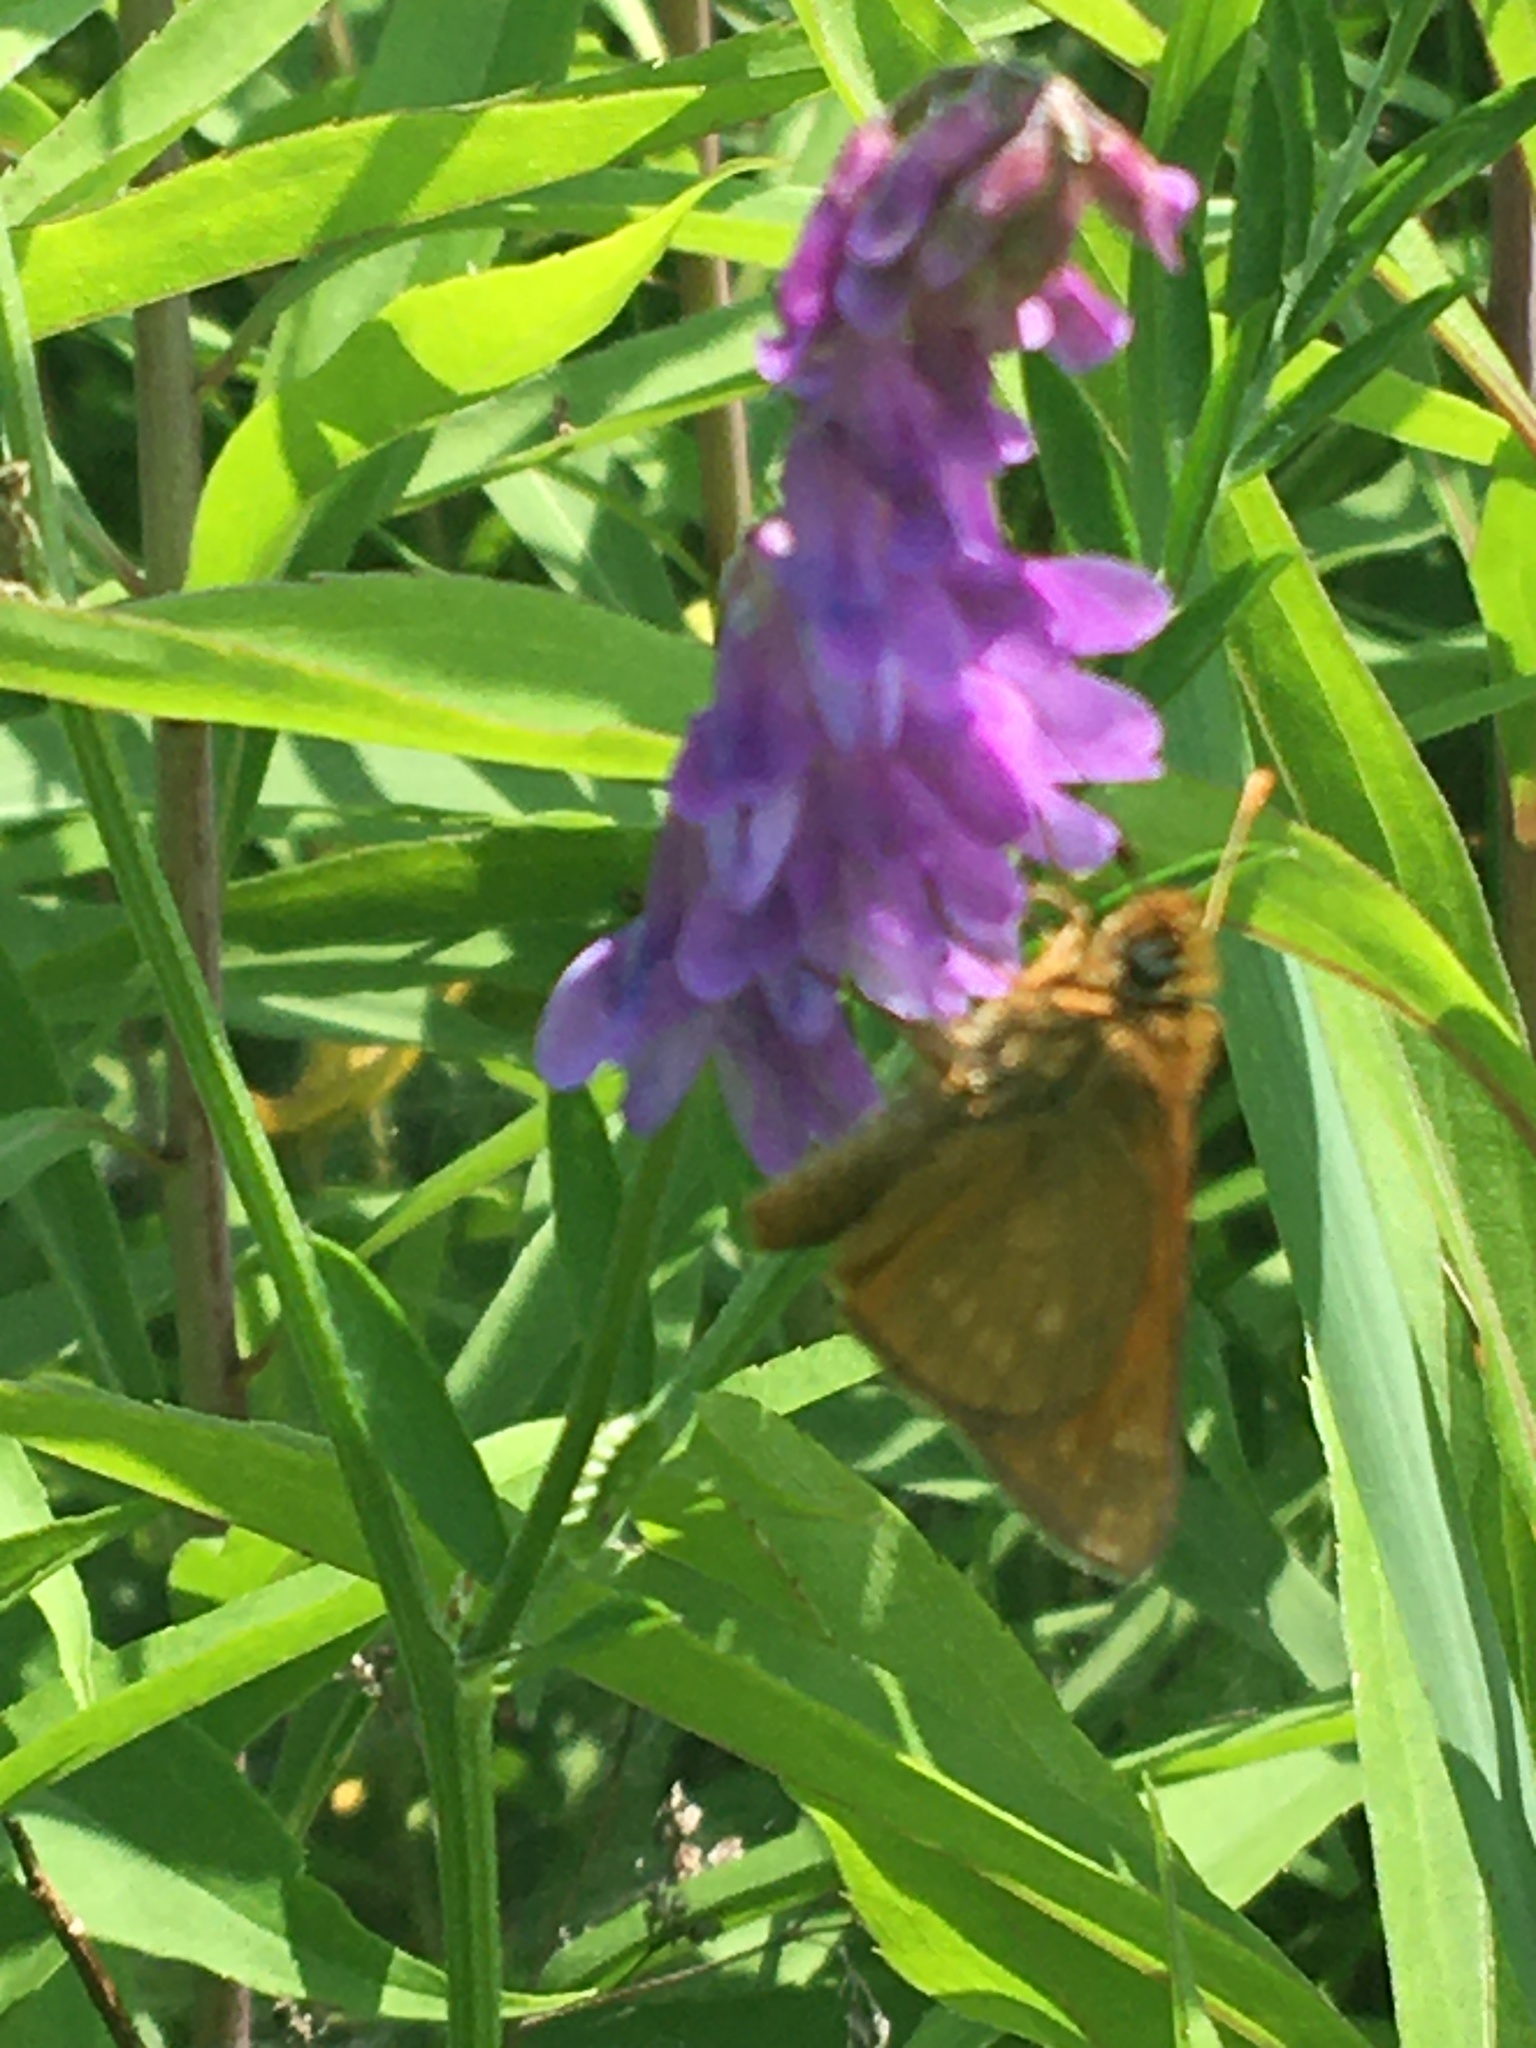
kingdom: Animalia
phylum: Arthropoda
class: Insecta
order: Lepidoptera
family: Hesperiidae
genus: Ochlodes
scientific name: Ochlodes venata
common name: Large skipper
